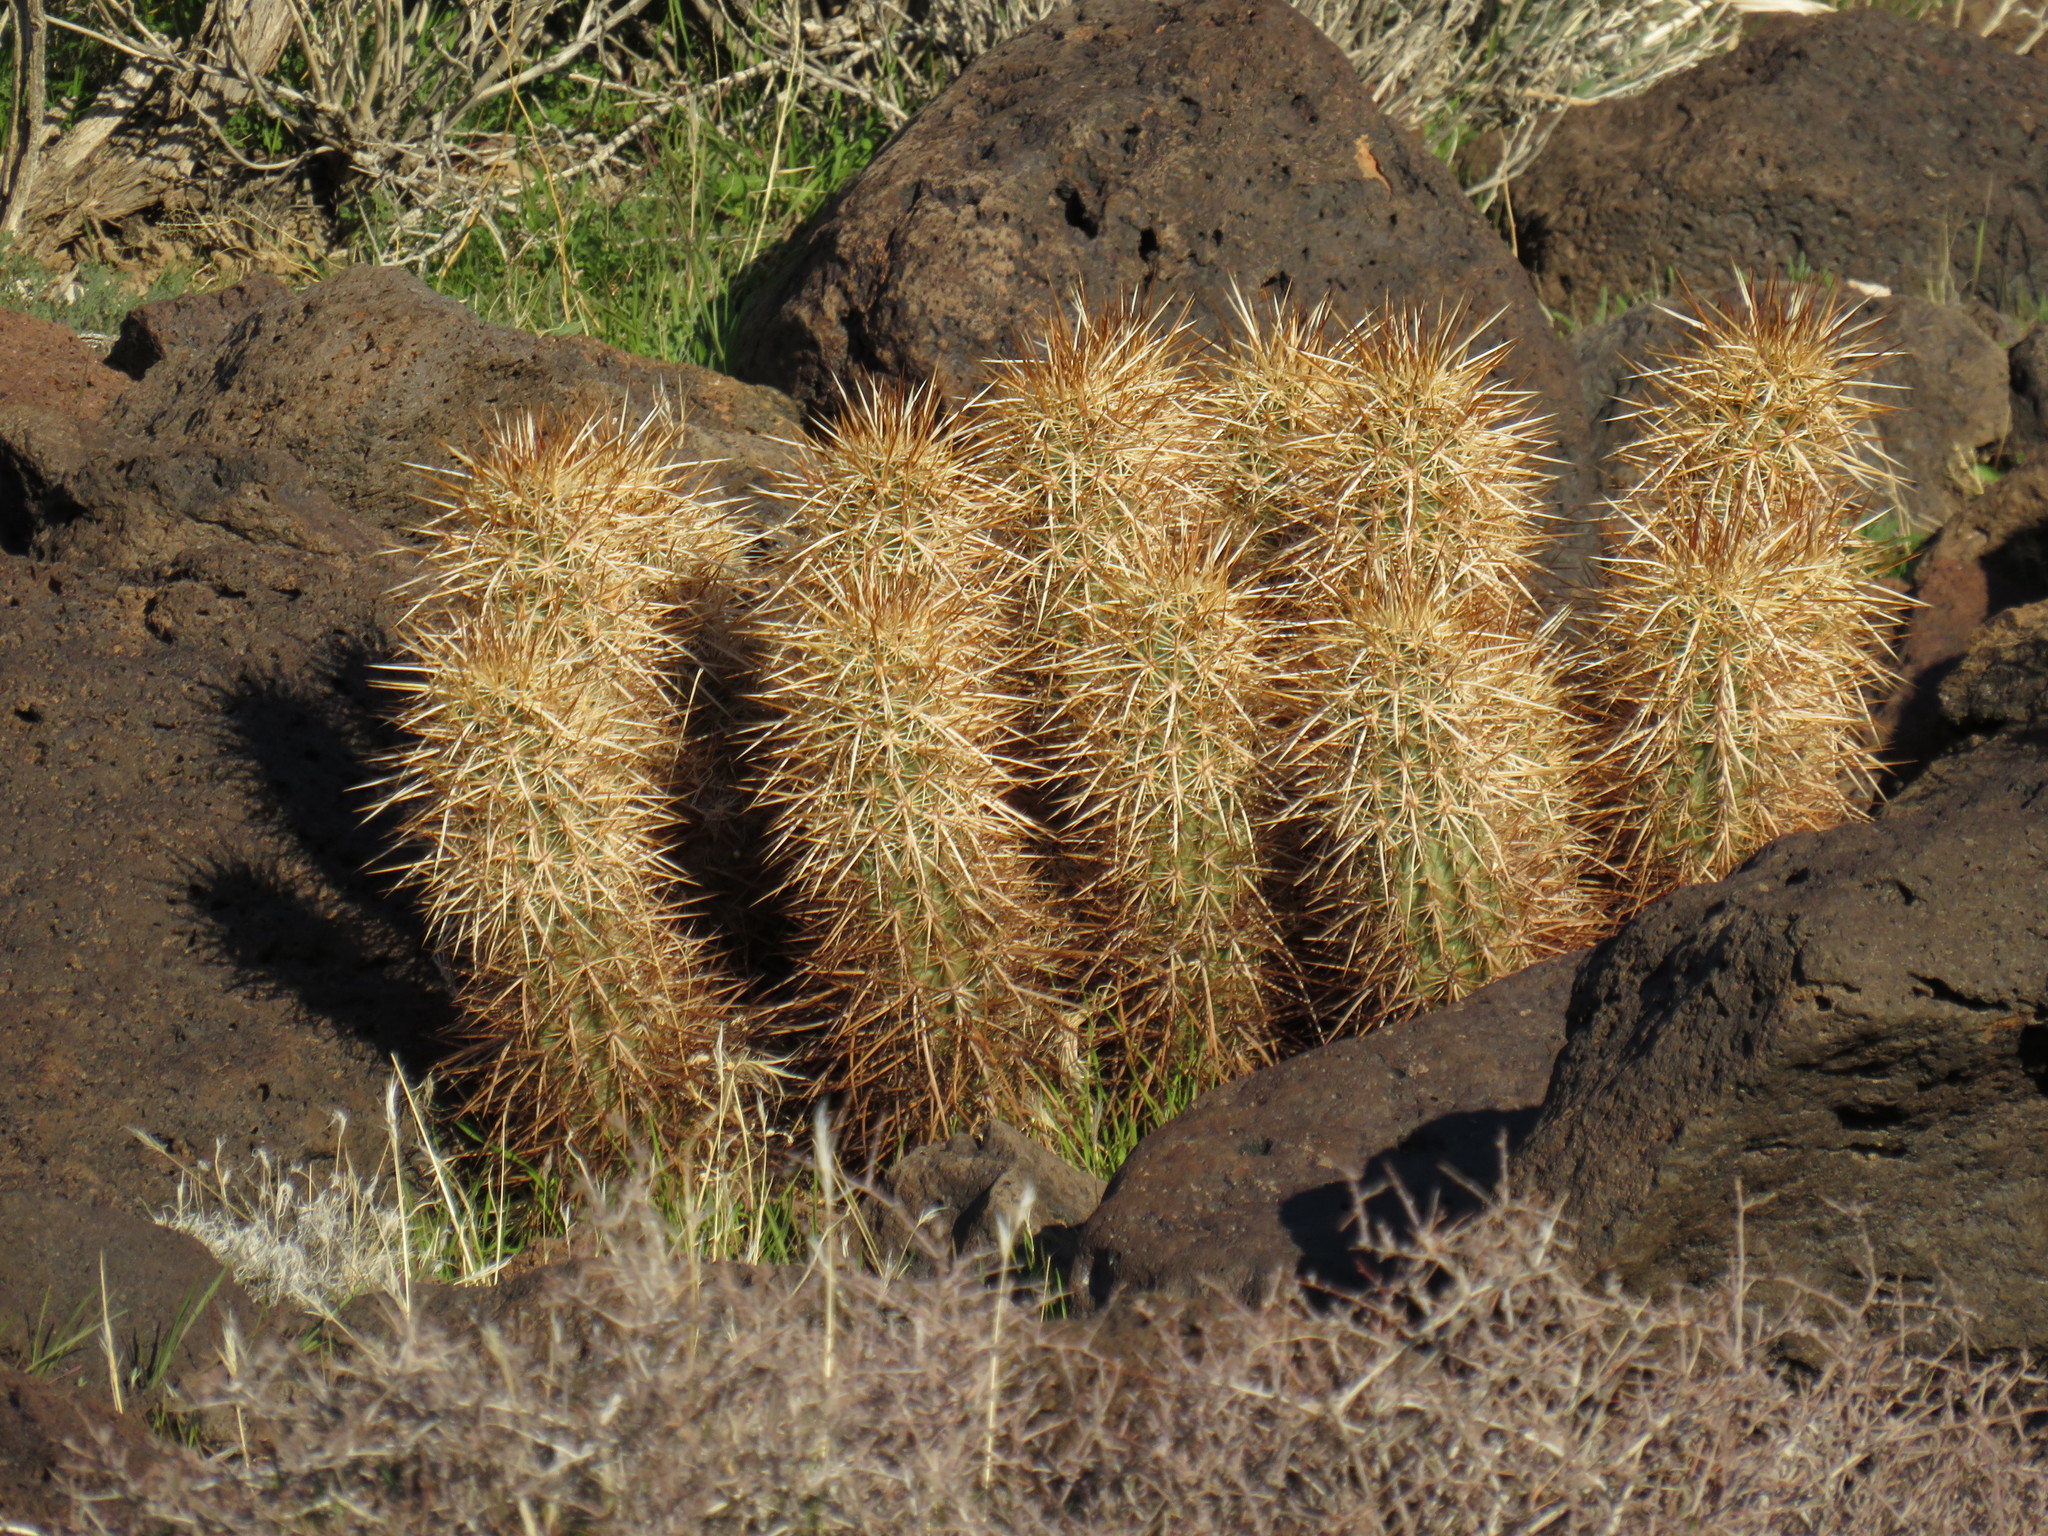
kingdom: Plantae
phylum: Tracheophyta
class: Magnoliopsida
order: Caryophyllales
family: Cactaceae
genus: Echinocereus
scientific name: Echinocereus engelmannii
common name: Engelmann's hedgehog cactus
